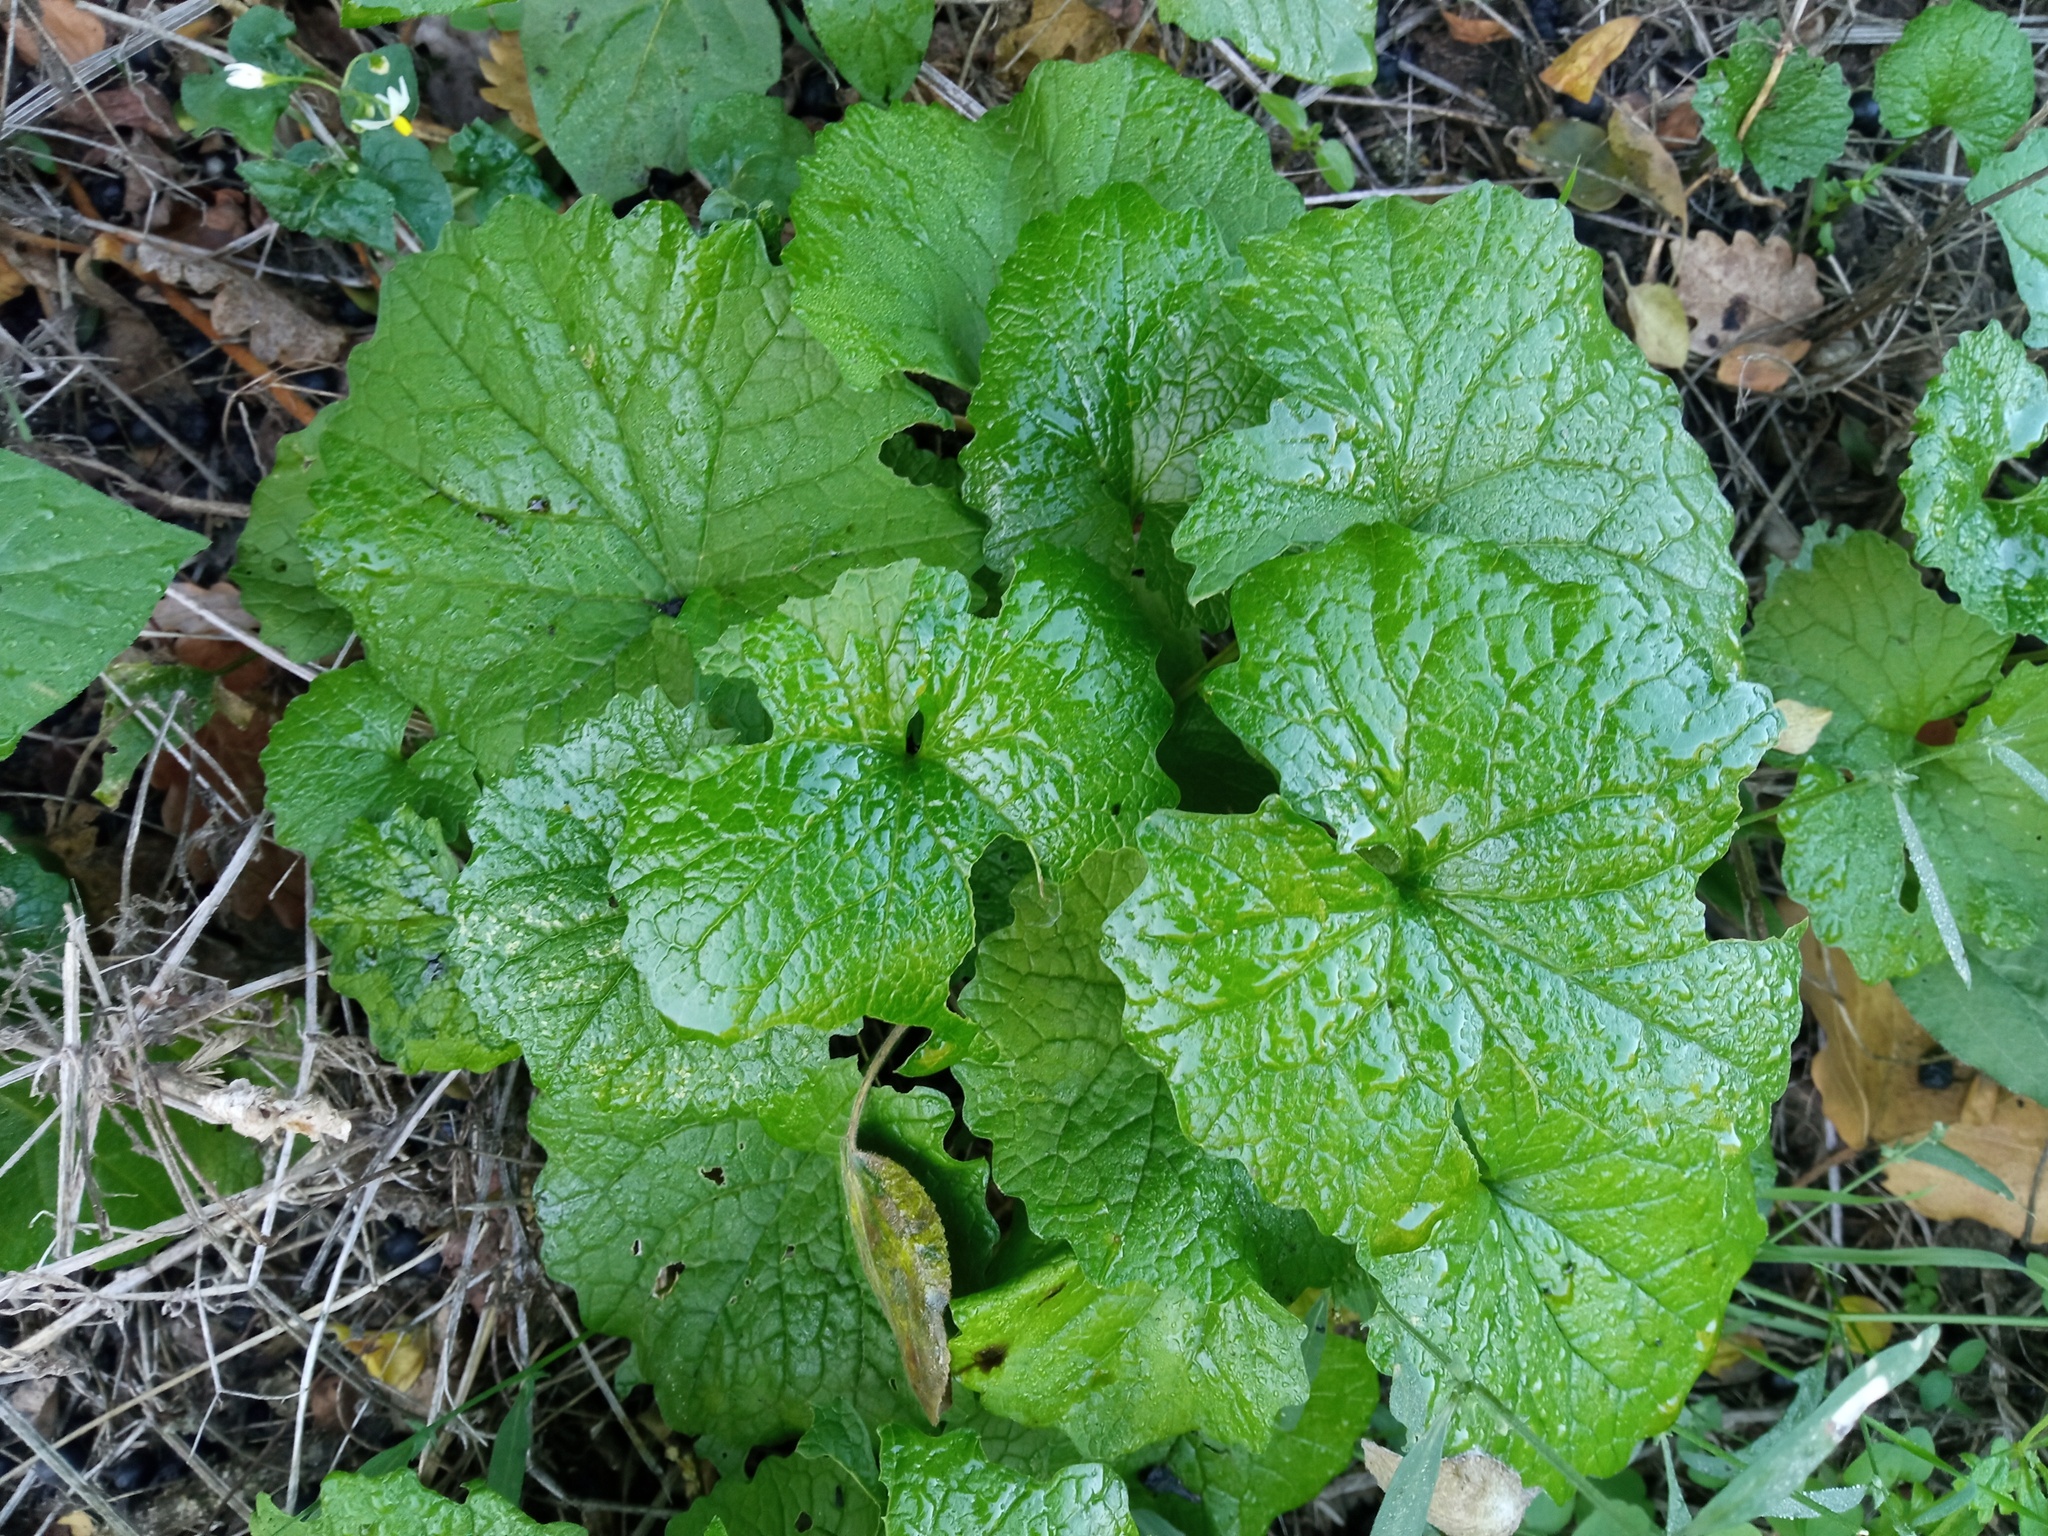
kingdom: Plantae
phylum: Tracheophyta
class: Magnoliopsida
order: Brassicales
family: Brassicaceae
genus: Alliaria
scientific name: Alliaria petiolata
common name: Garlic mustard
